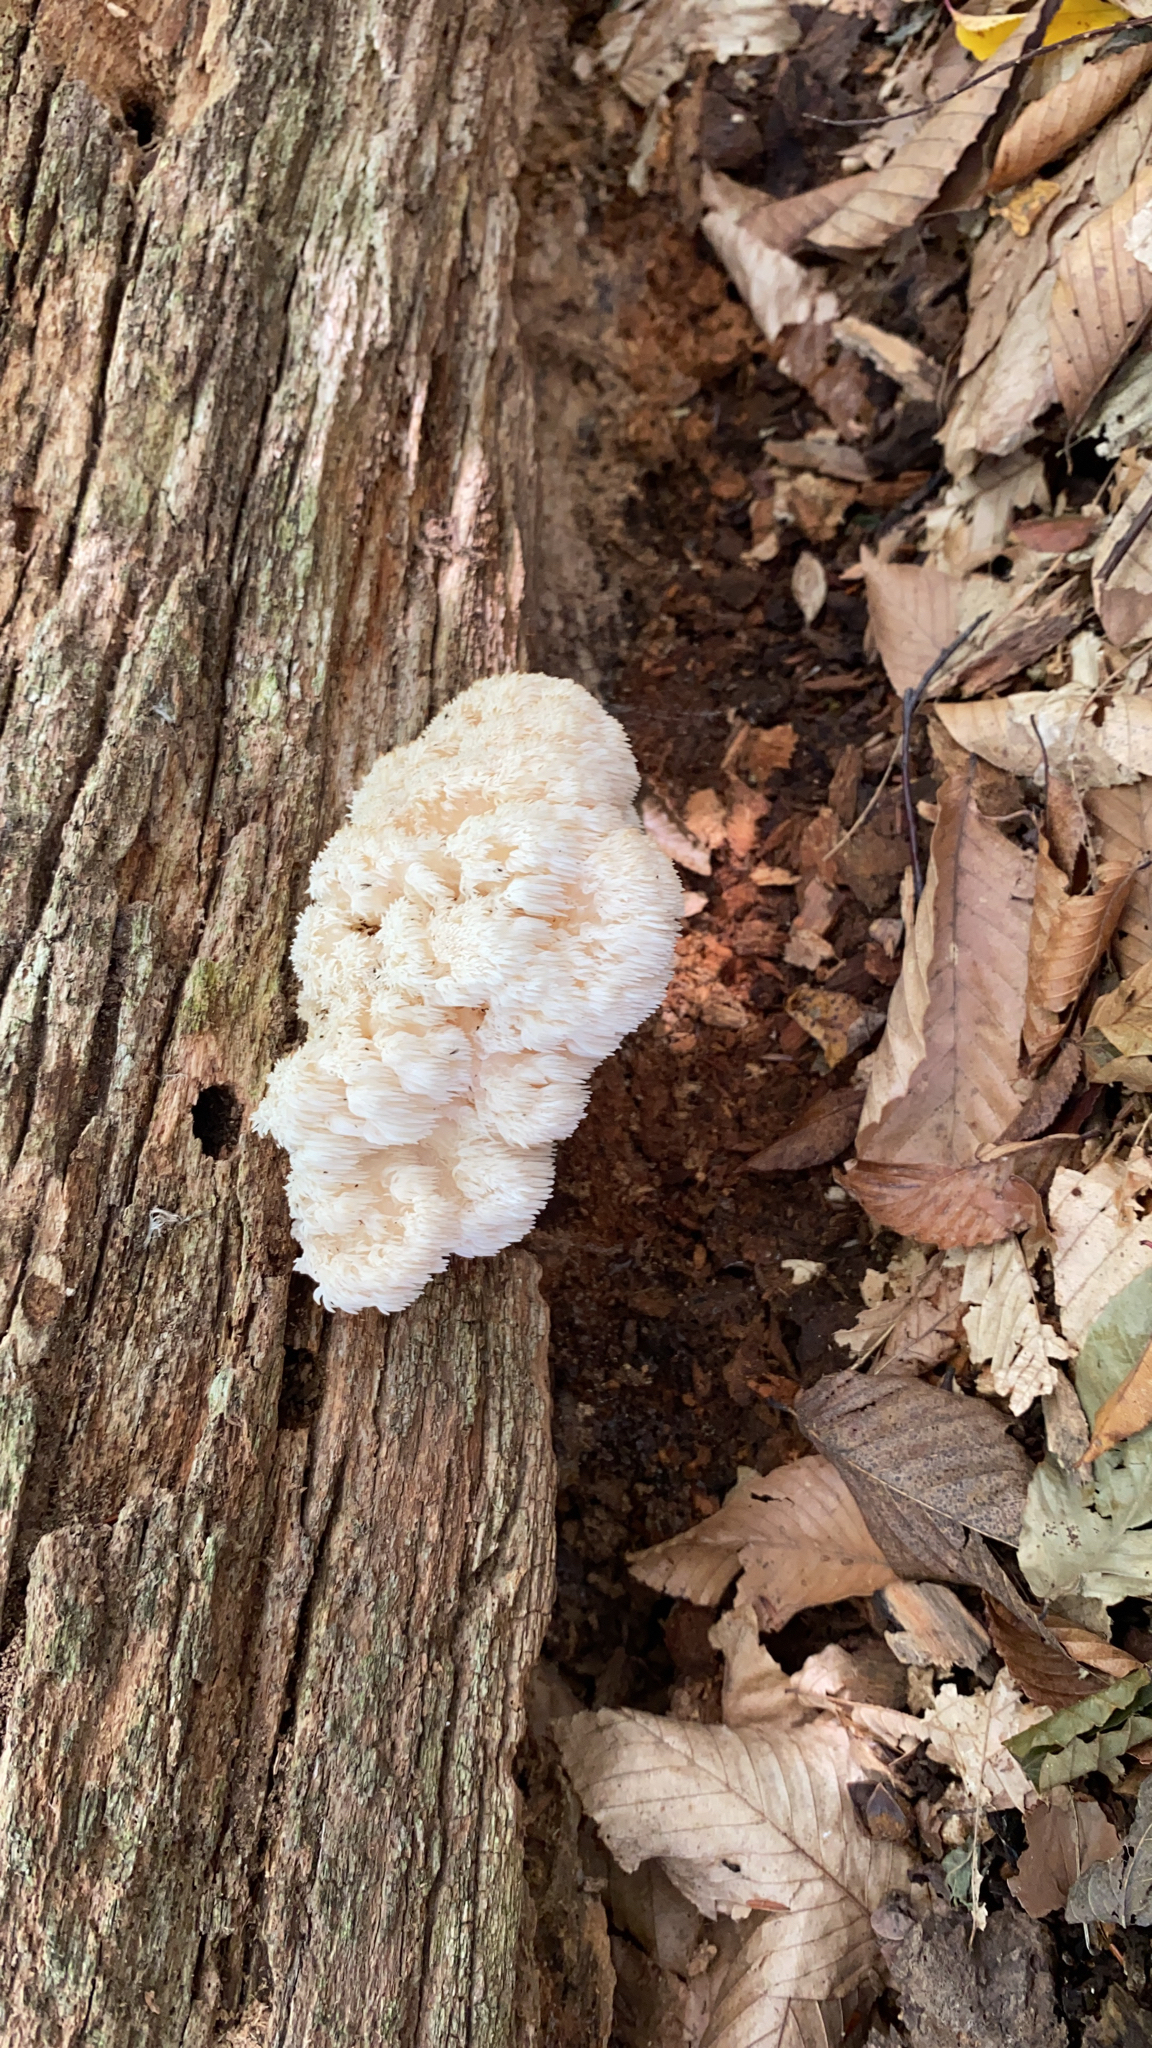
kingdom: Fungi
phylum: Basidiomycota
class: Agaricomycetes
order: Russulales
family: Hericiaceae
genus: Hericium
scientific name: Hericium americanum
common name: Bear's head tooth
